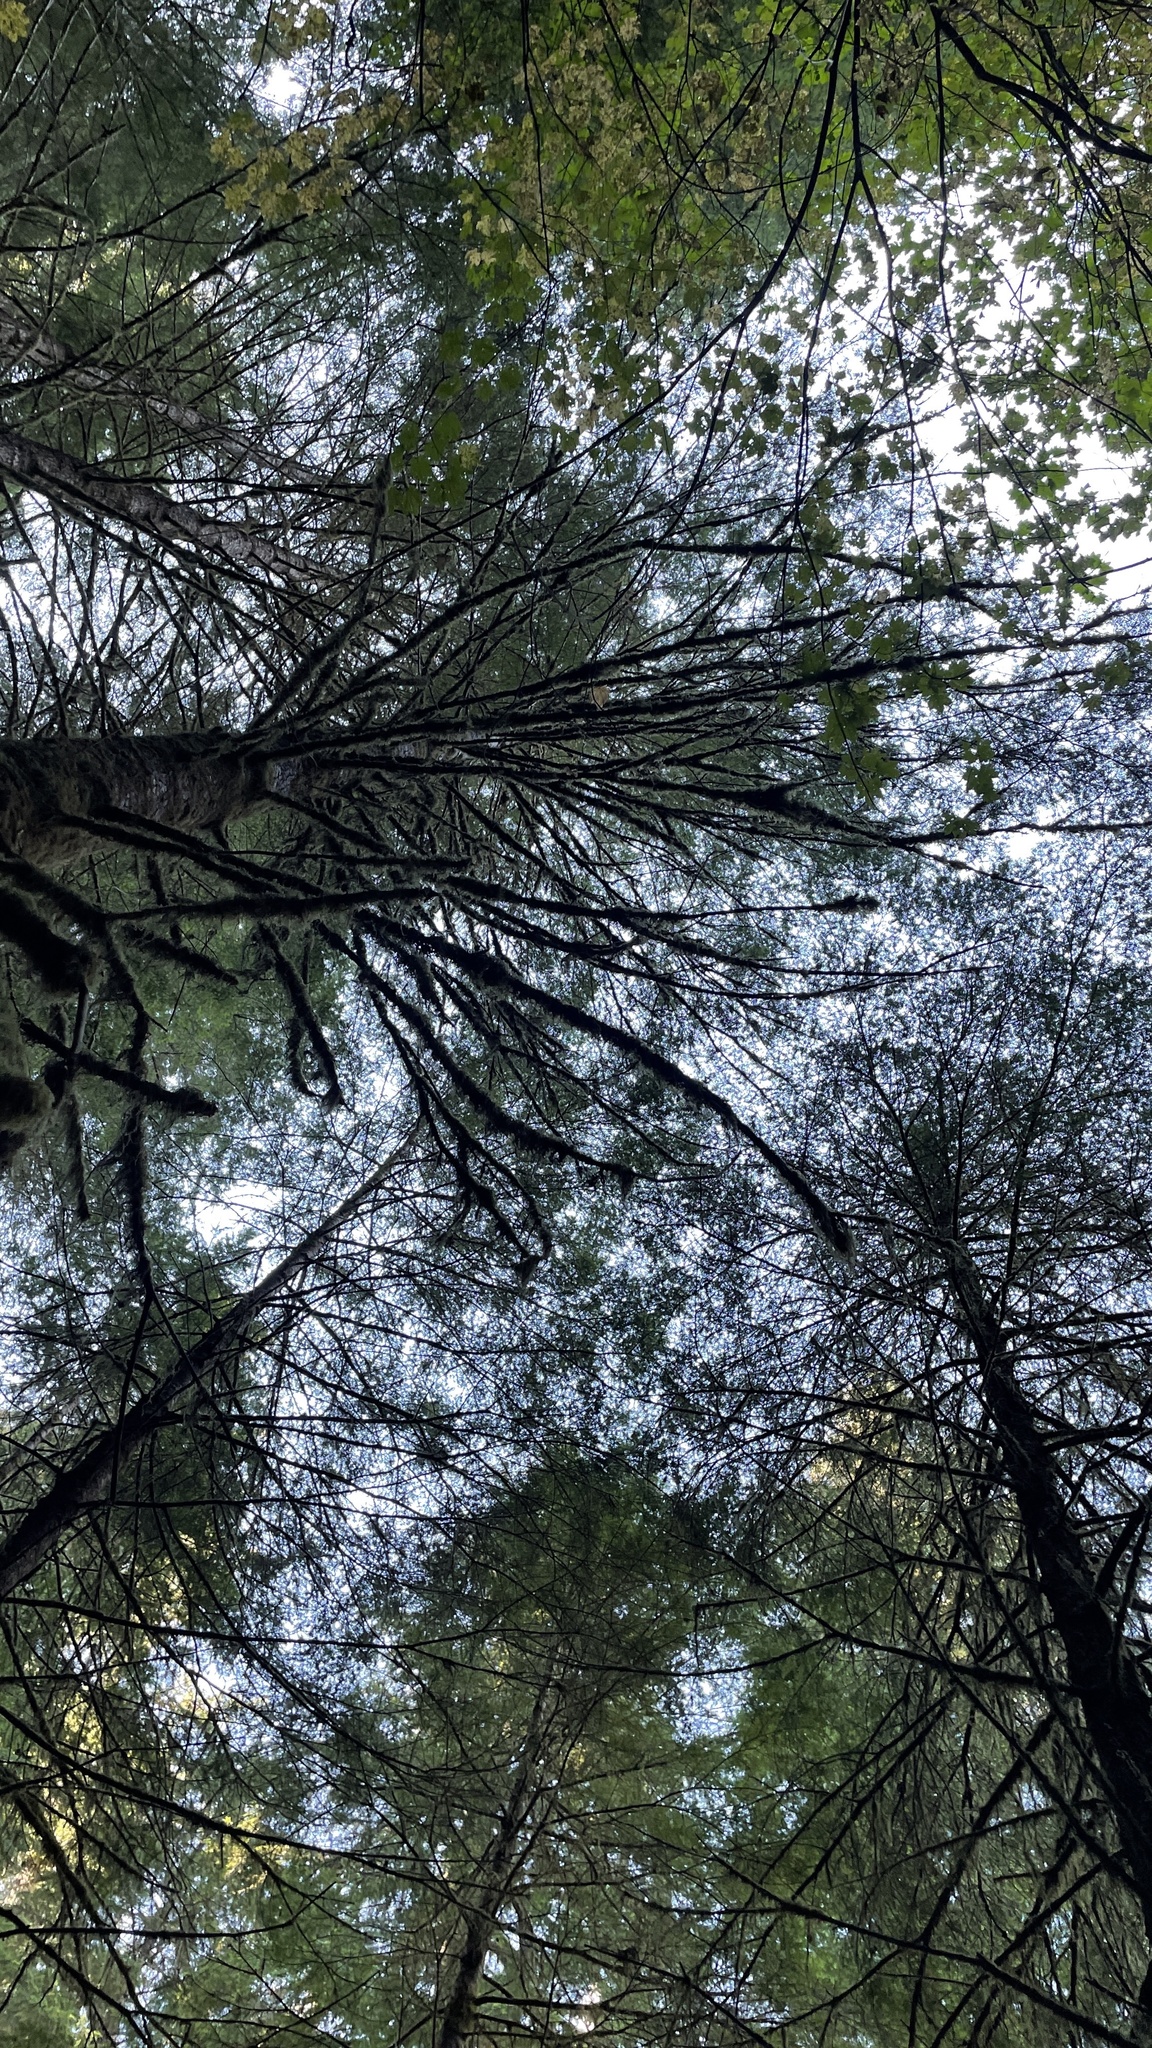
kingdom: Fungi
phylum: Basidiomycota
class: Agaricomycetes
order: Russulales
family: Russulaceae
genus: Russula
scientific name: Russula similaris
